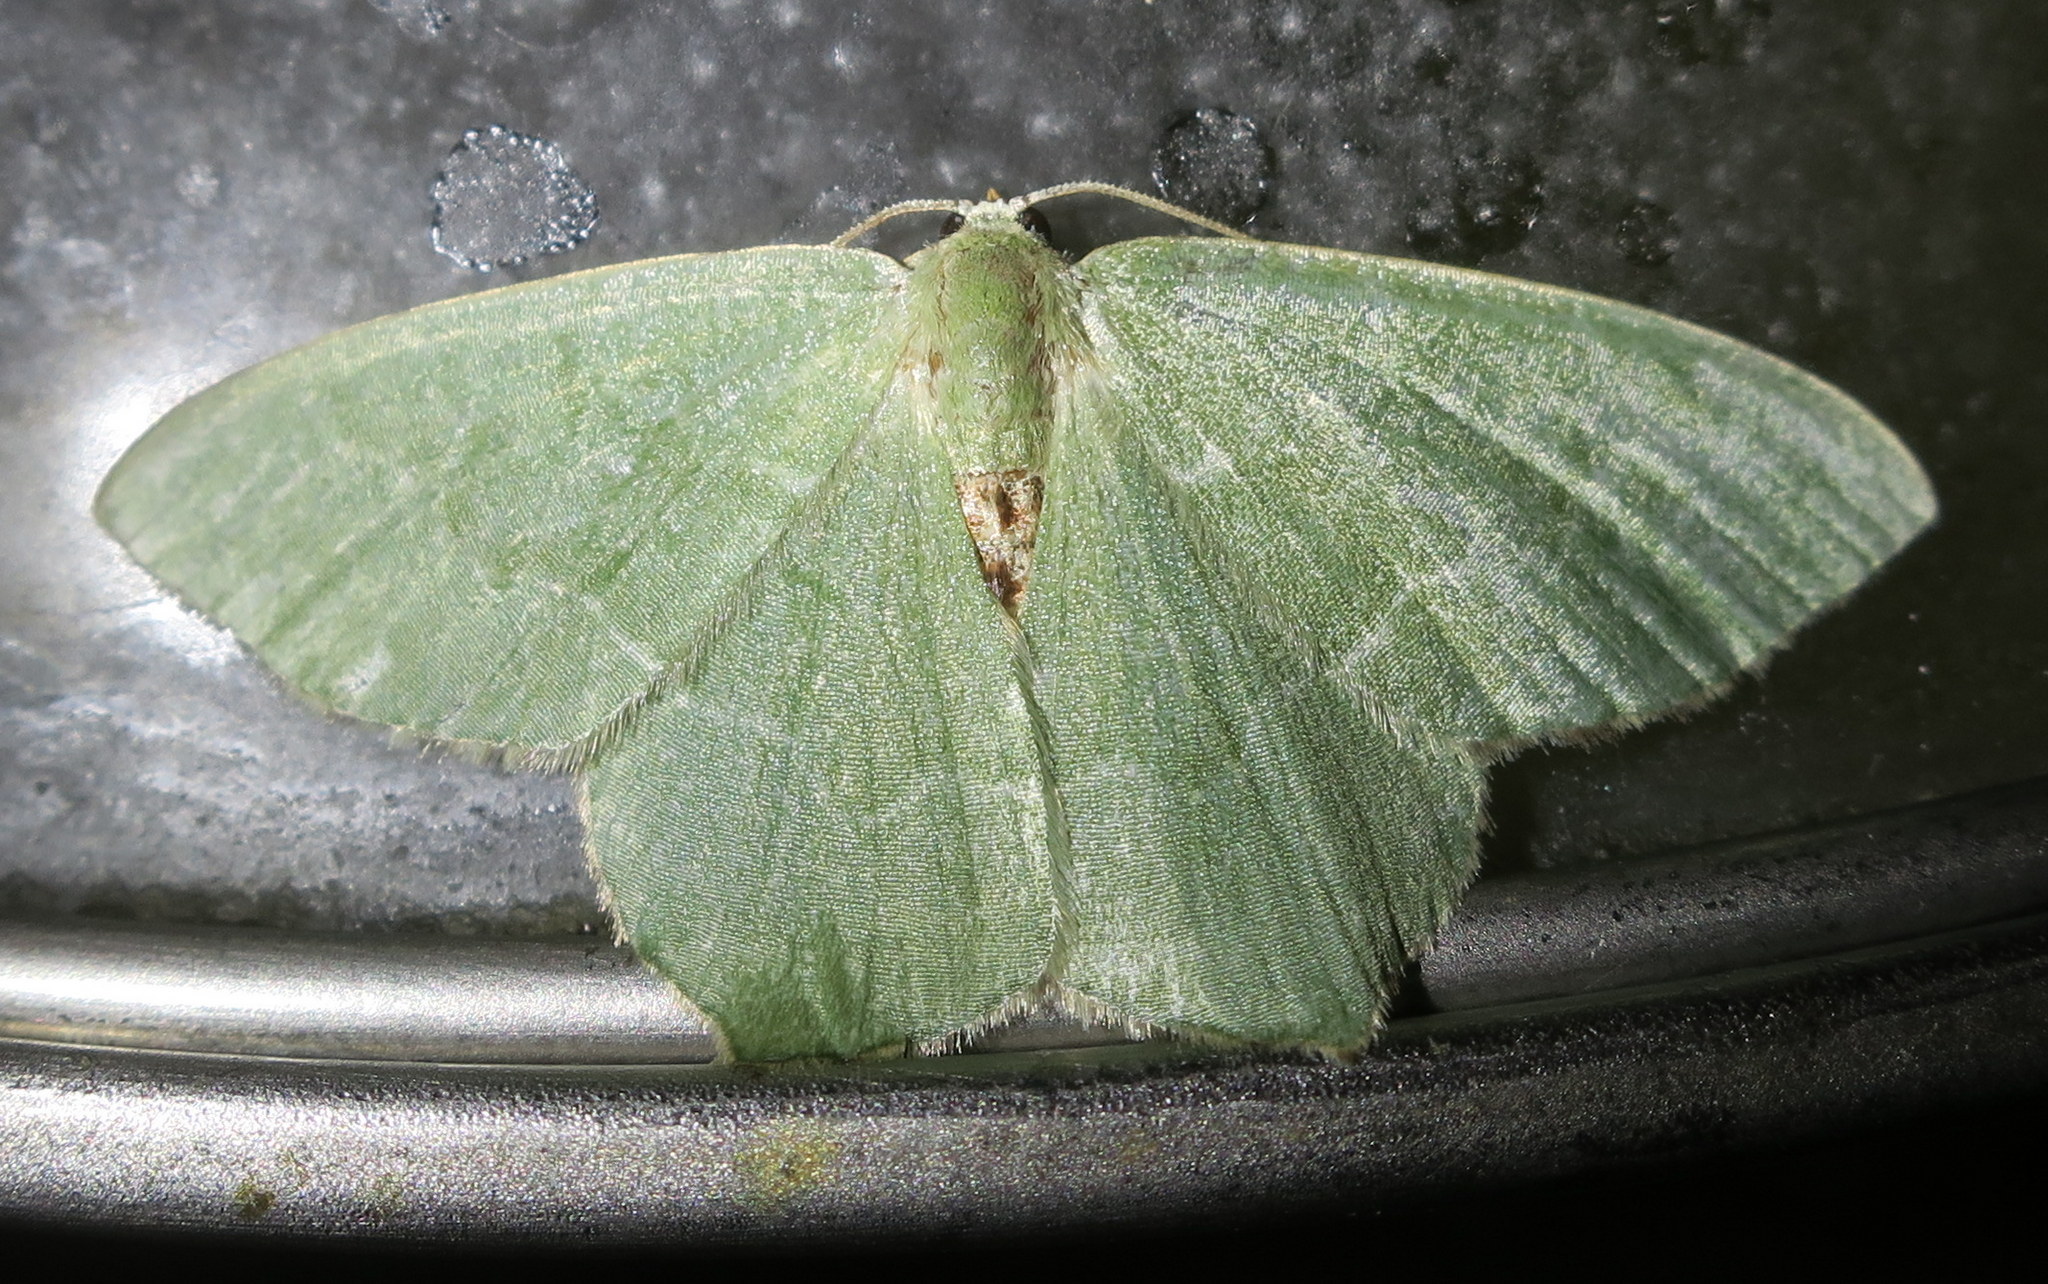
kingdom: Animalia
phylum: Arthropoda
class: Insecta
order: Lepidoptera
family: Geometridae
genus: Hemithea
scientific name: Hemithea aestivaria
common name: Common emerald
